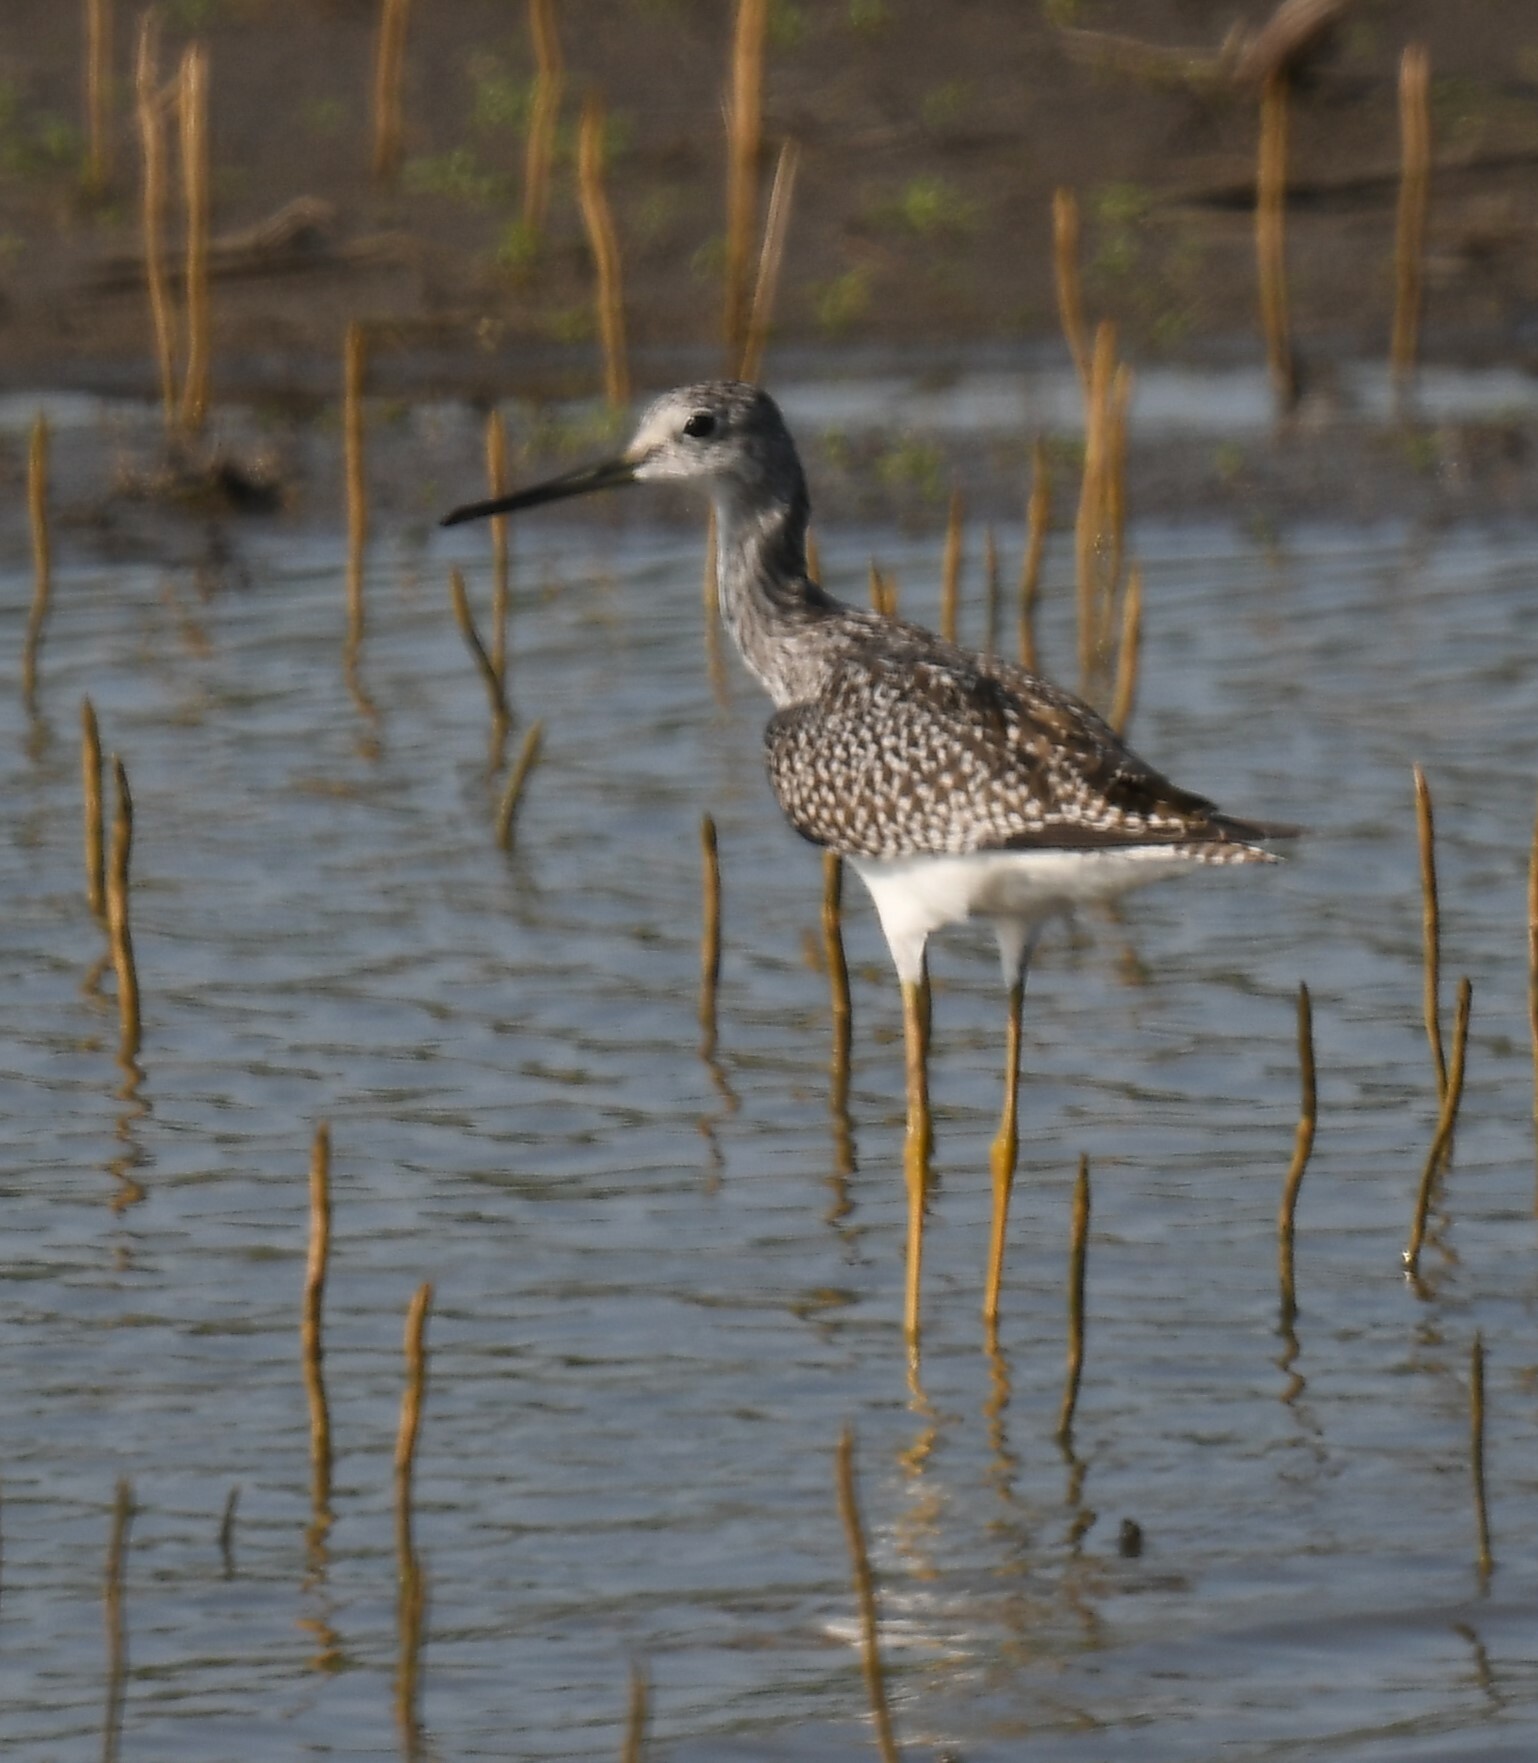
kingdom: Animalia
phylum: Chordata
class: Aves
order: Charadriiformes
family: Scolopacidae
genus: Tringa
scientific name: Tringa melanoleuca
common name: Greater yellowlegs
